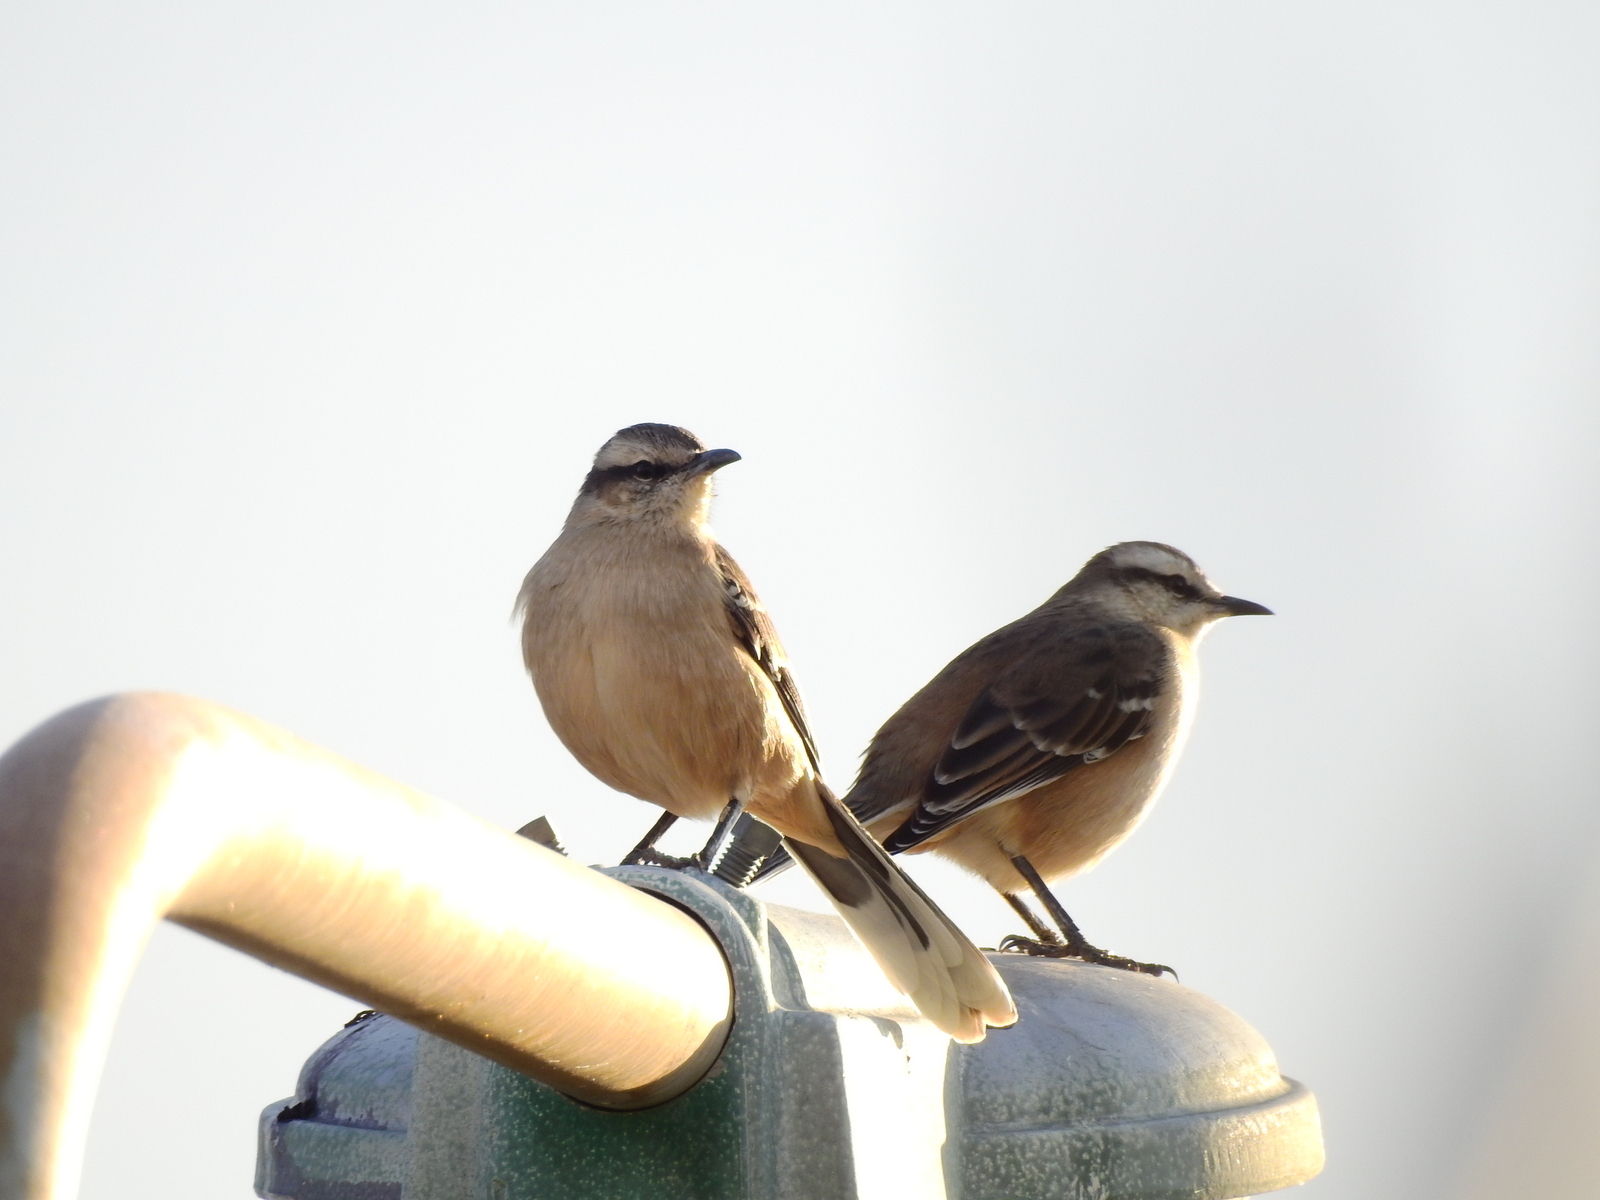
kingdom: Animalia
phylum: Chordata
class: Aves
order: Passeriformes
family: Mimidae
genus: Mimus
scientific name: Mimus saturninus
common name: Chalk-browed mockingbird
